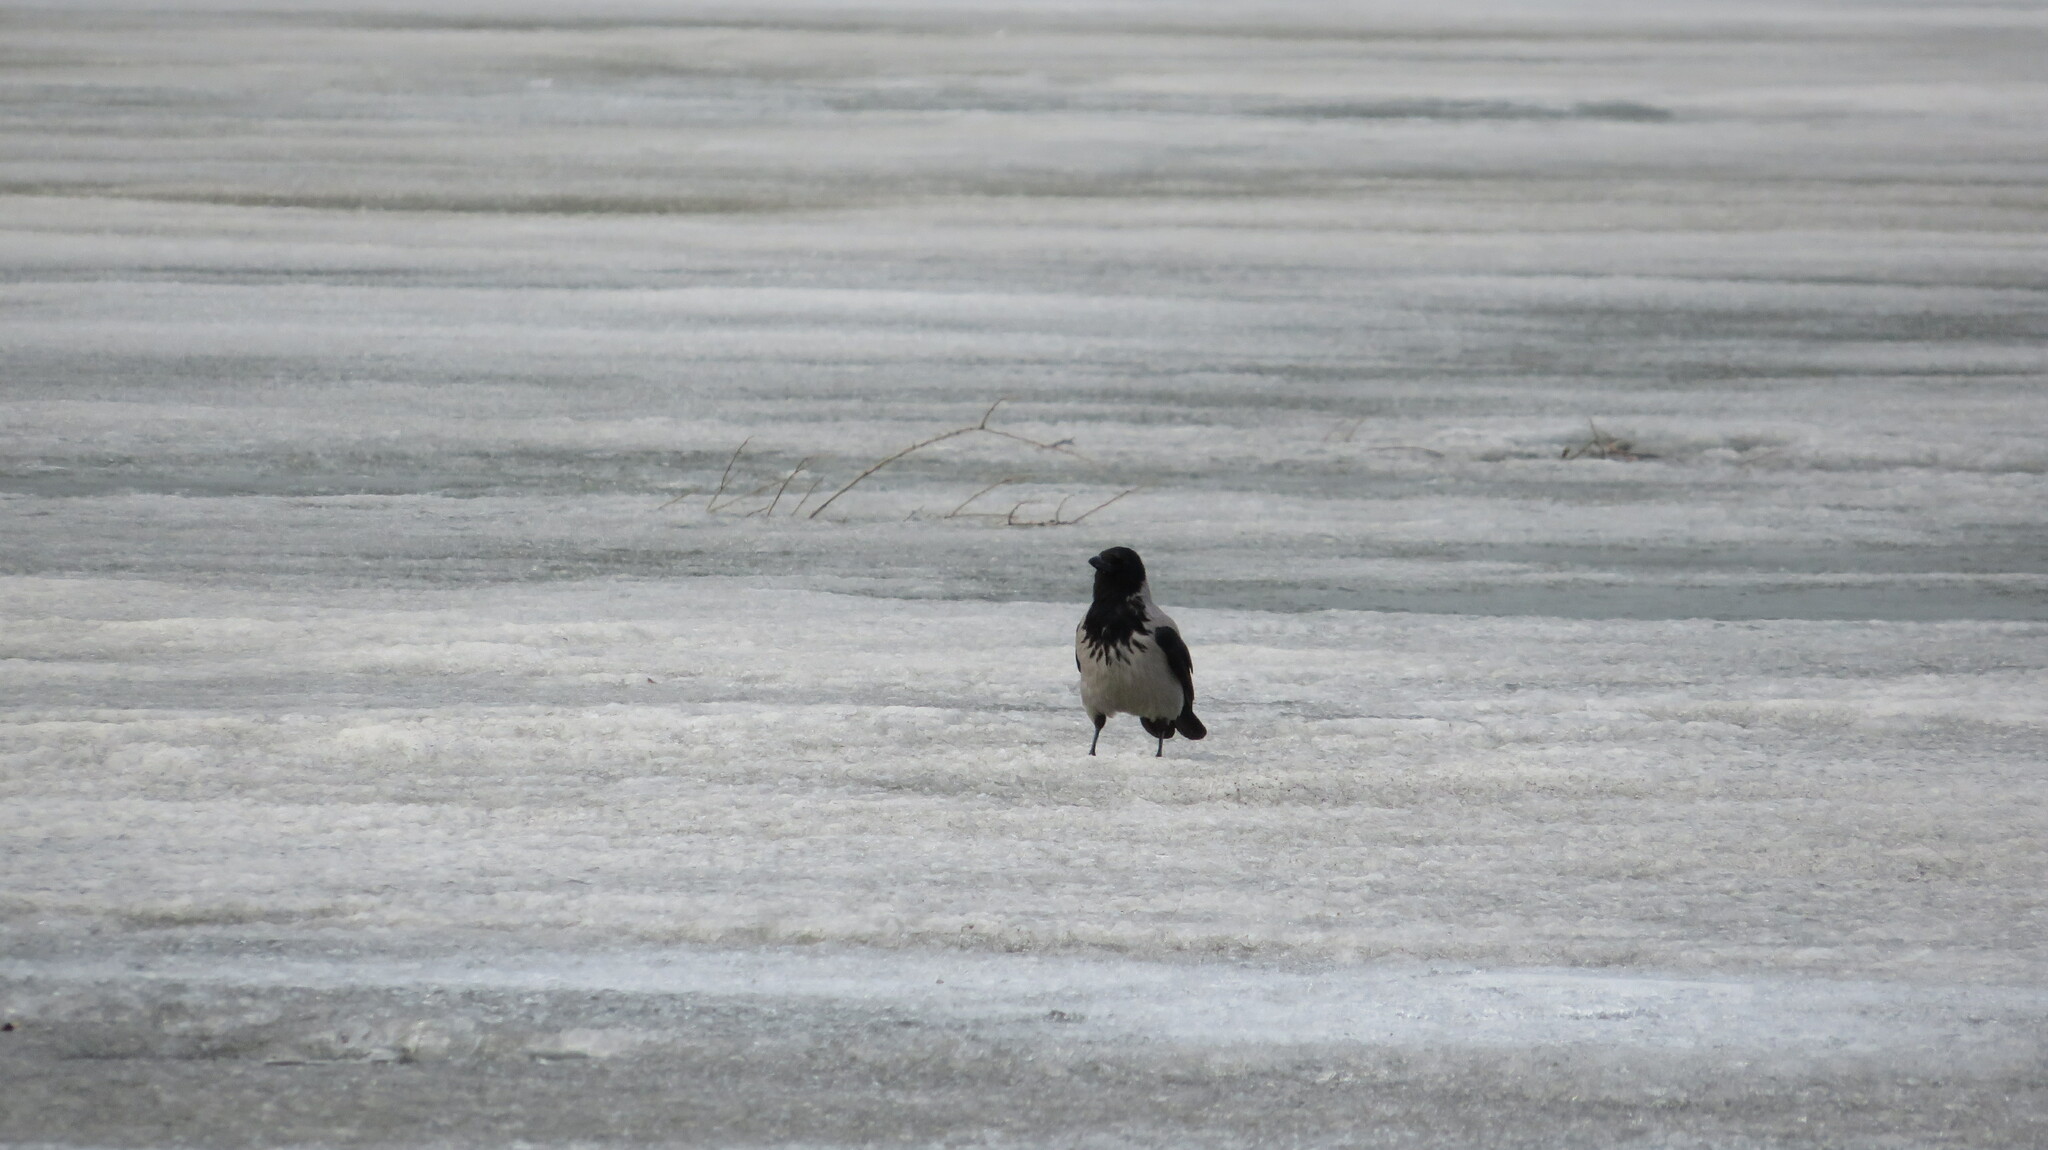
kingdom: Animalia
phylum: Chordata
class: Aves
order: Passeriformes
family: Corvidae
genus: Corvus
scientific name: Corvus cornix
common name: Hooded crow
